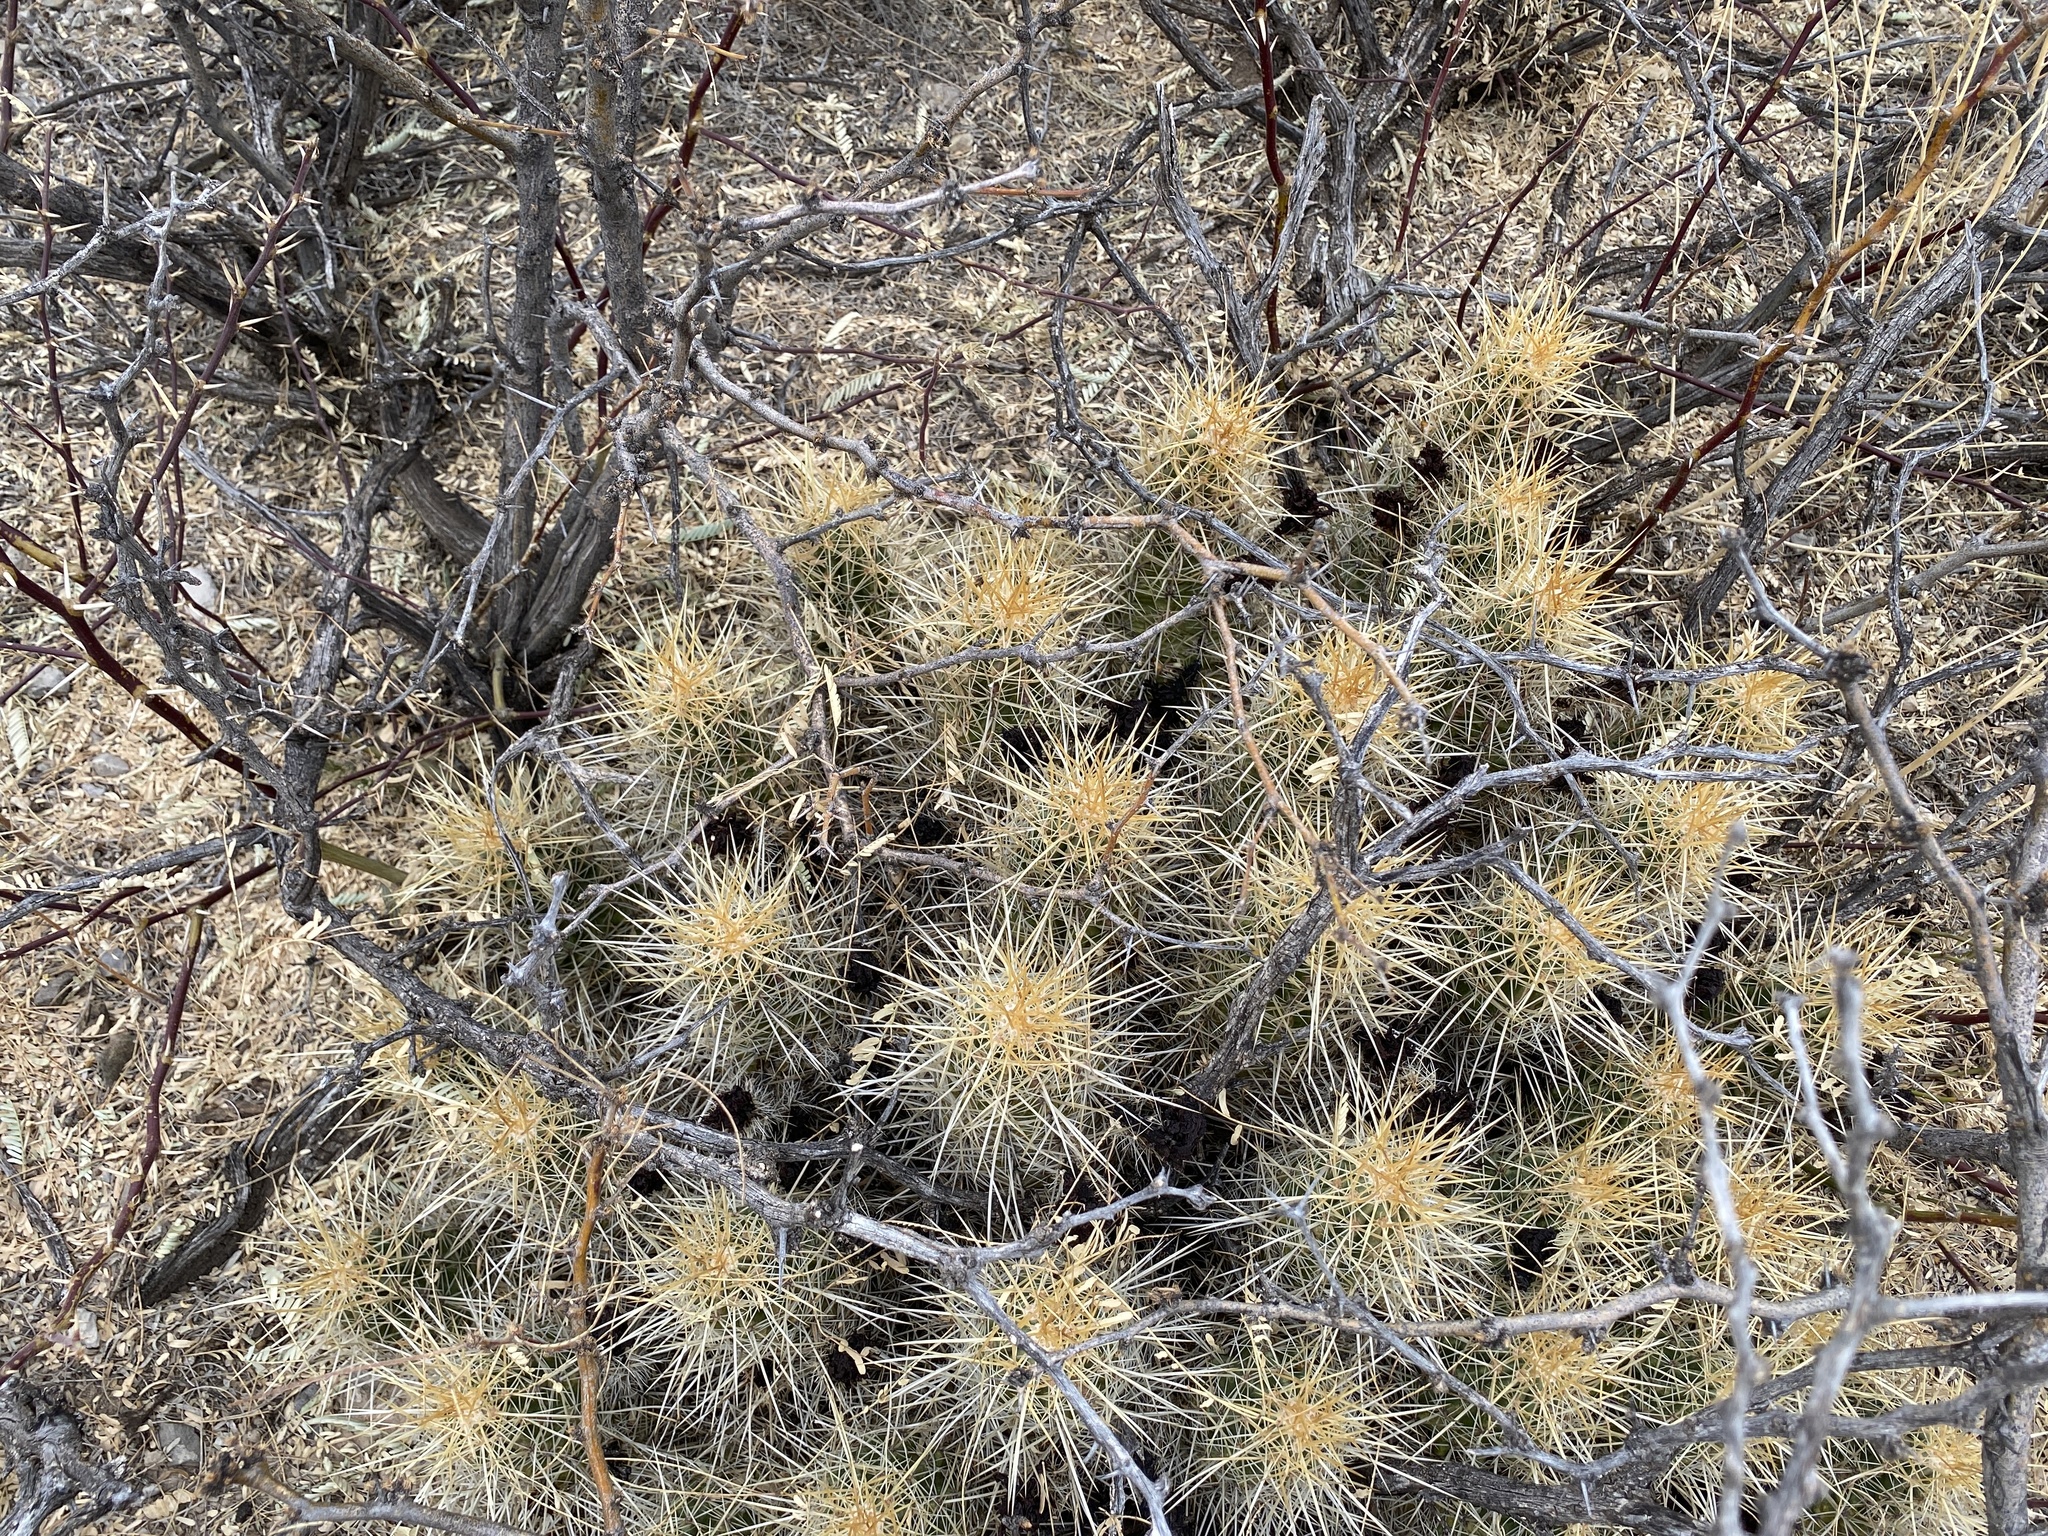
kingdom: Plantae
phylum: Tracheophyta
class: Magnoliopsida
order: Caryophyllales
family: Cactaceae
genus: Echinocereus
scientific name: Echinocereus stramineus
